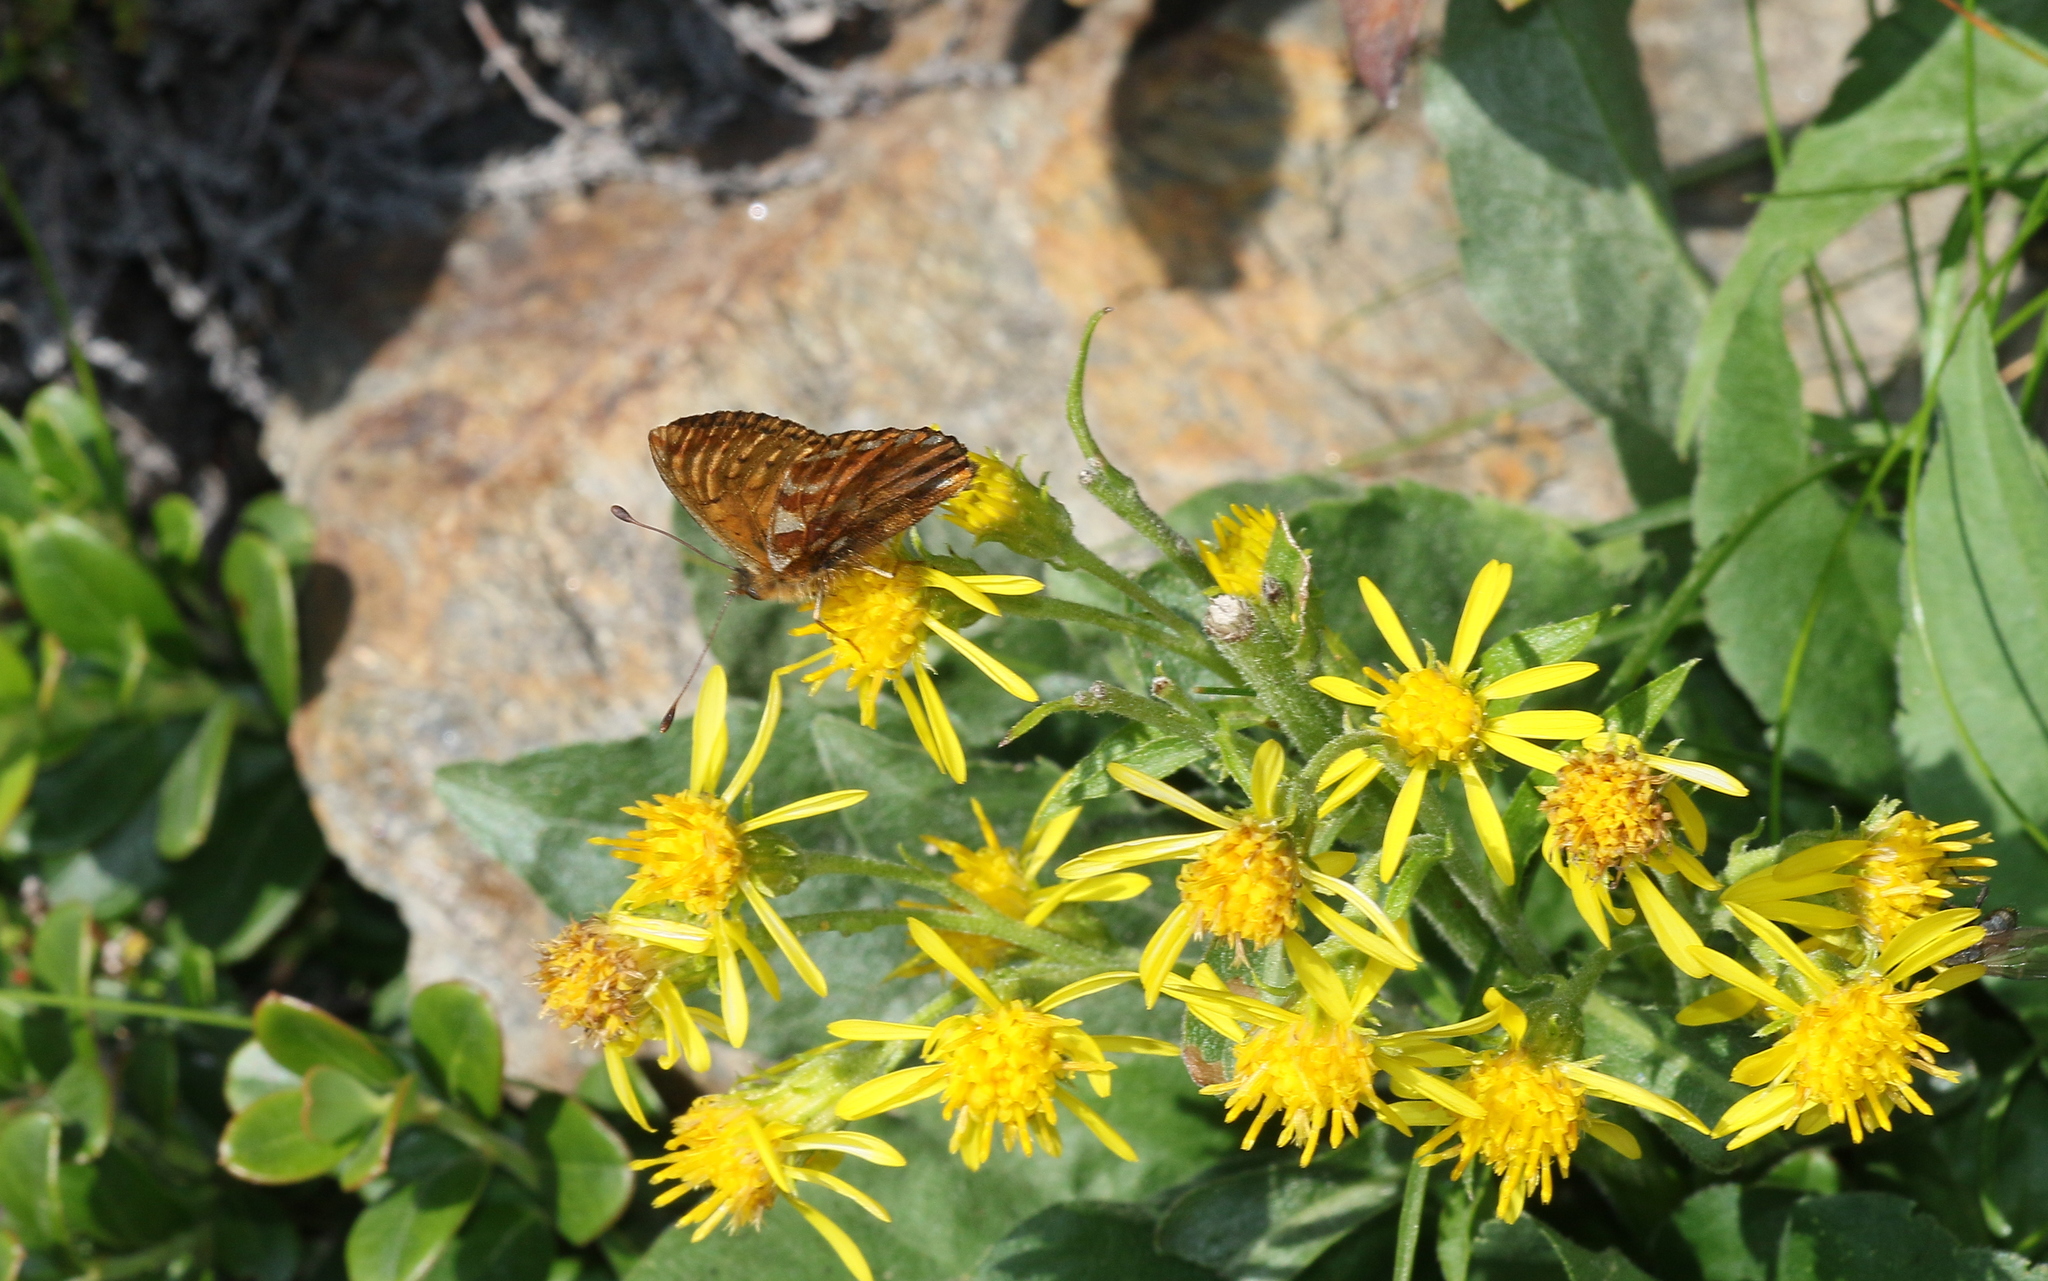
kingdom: Animalia
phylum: Arthropoda
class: Insecta
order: Lepidoptera
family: Nymphalidae
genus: Boloria
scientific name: Boloria pales
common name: Shepherd's fritillary
